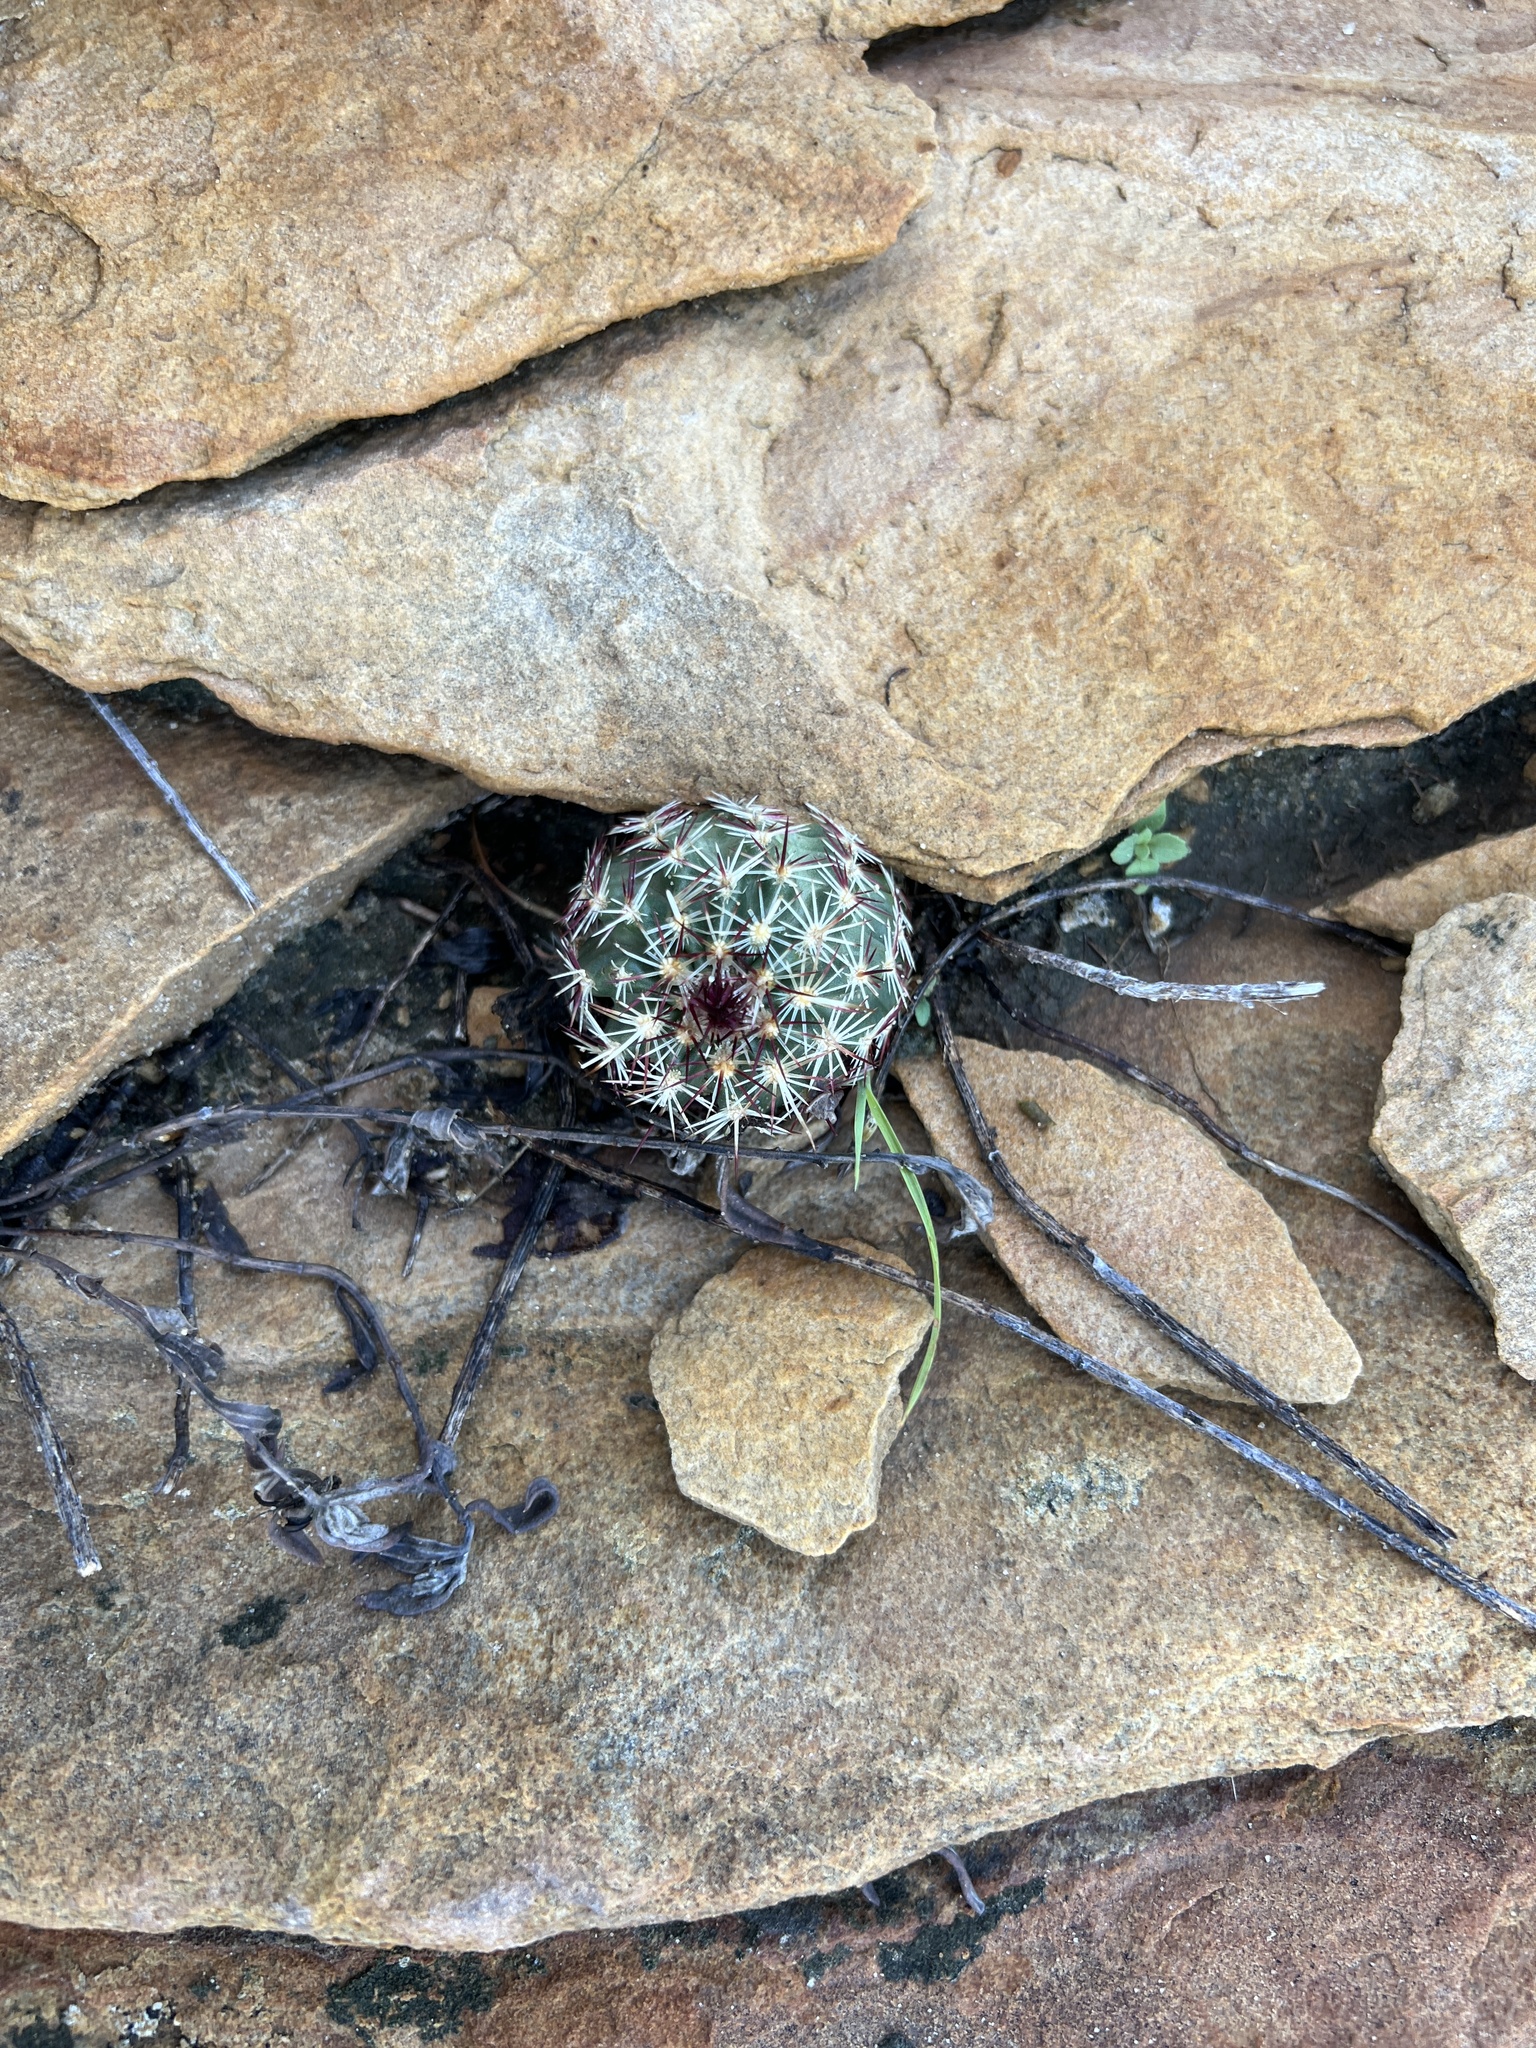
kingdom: Plantae
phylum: Tracheophyta
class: Magnoliopsida
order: Caryophyllales
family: Cactaceae
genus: Echinocereus
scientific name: Echinocereus viridiflorus
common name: Nylon hedgehog cactus
